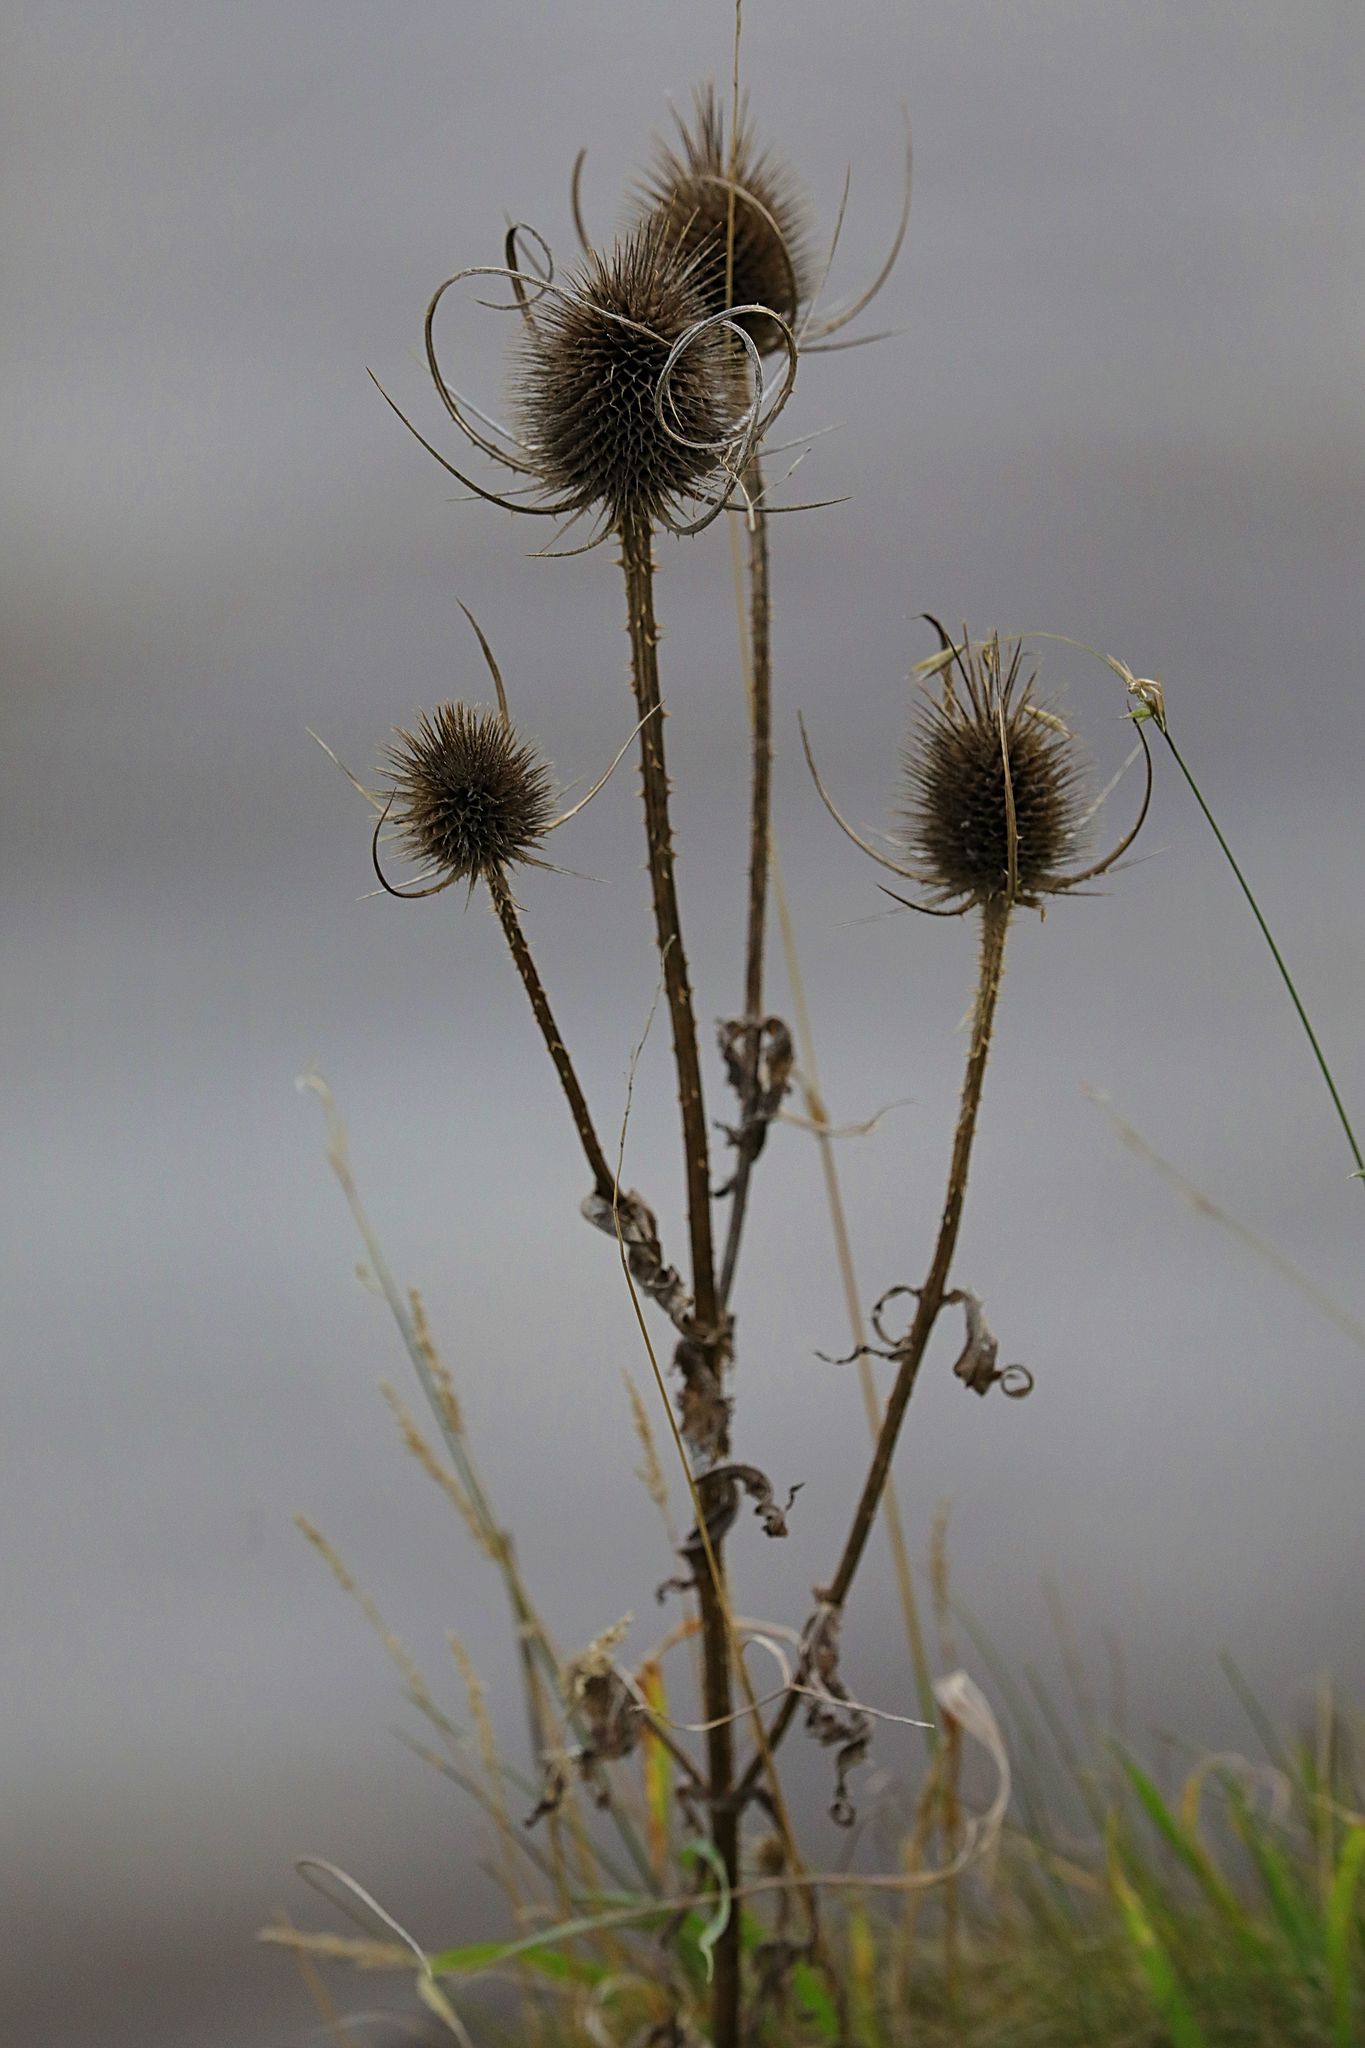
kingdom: Plantae
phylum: Tracheophyta
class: Magnoliopsida
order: Dipsacales
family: Caprifoliaceae
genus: Dipsacus
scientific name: Dipsacus fullonum
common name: Teasel
